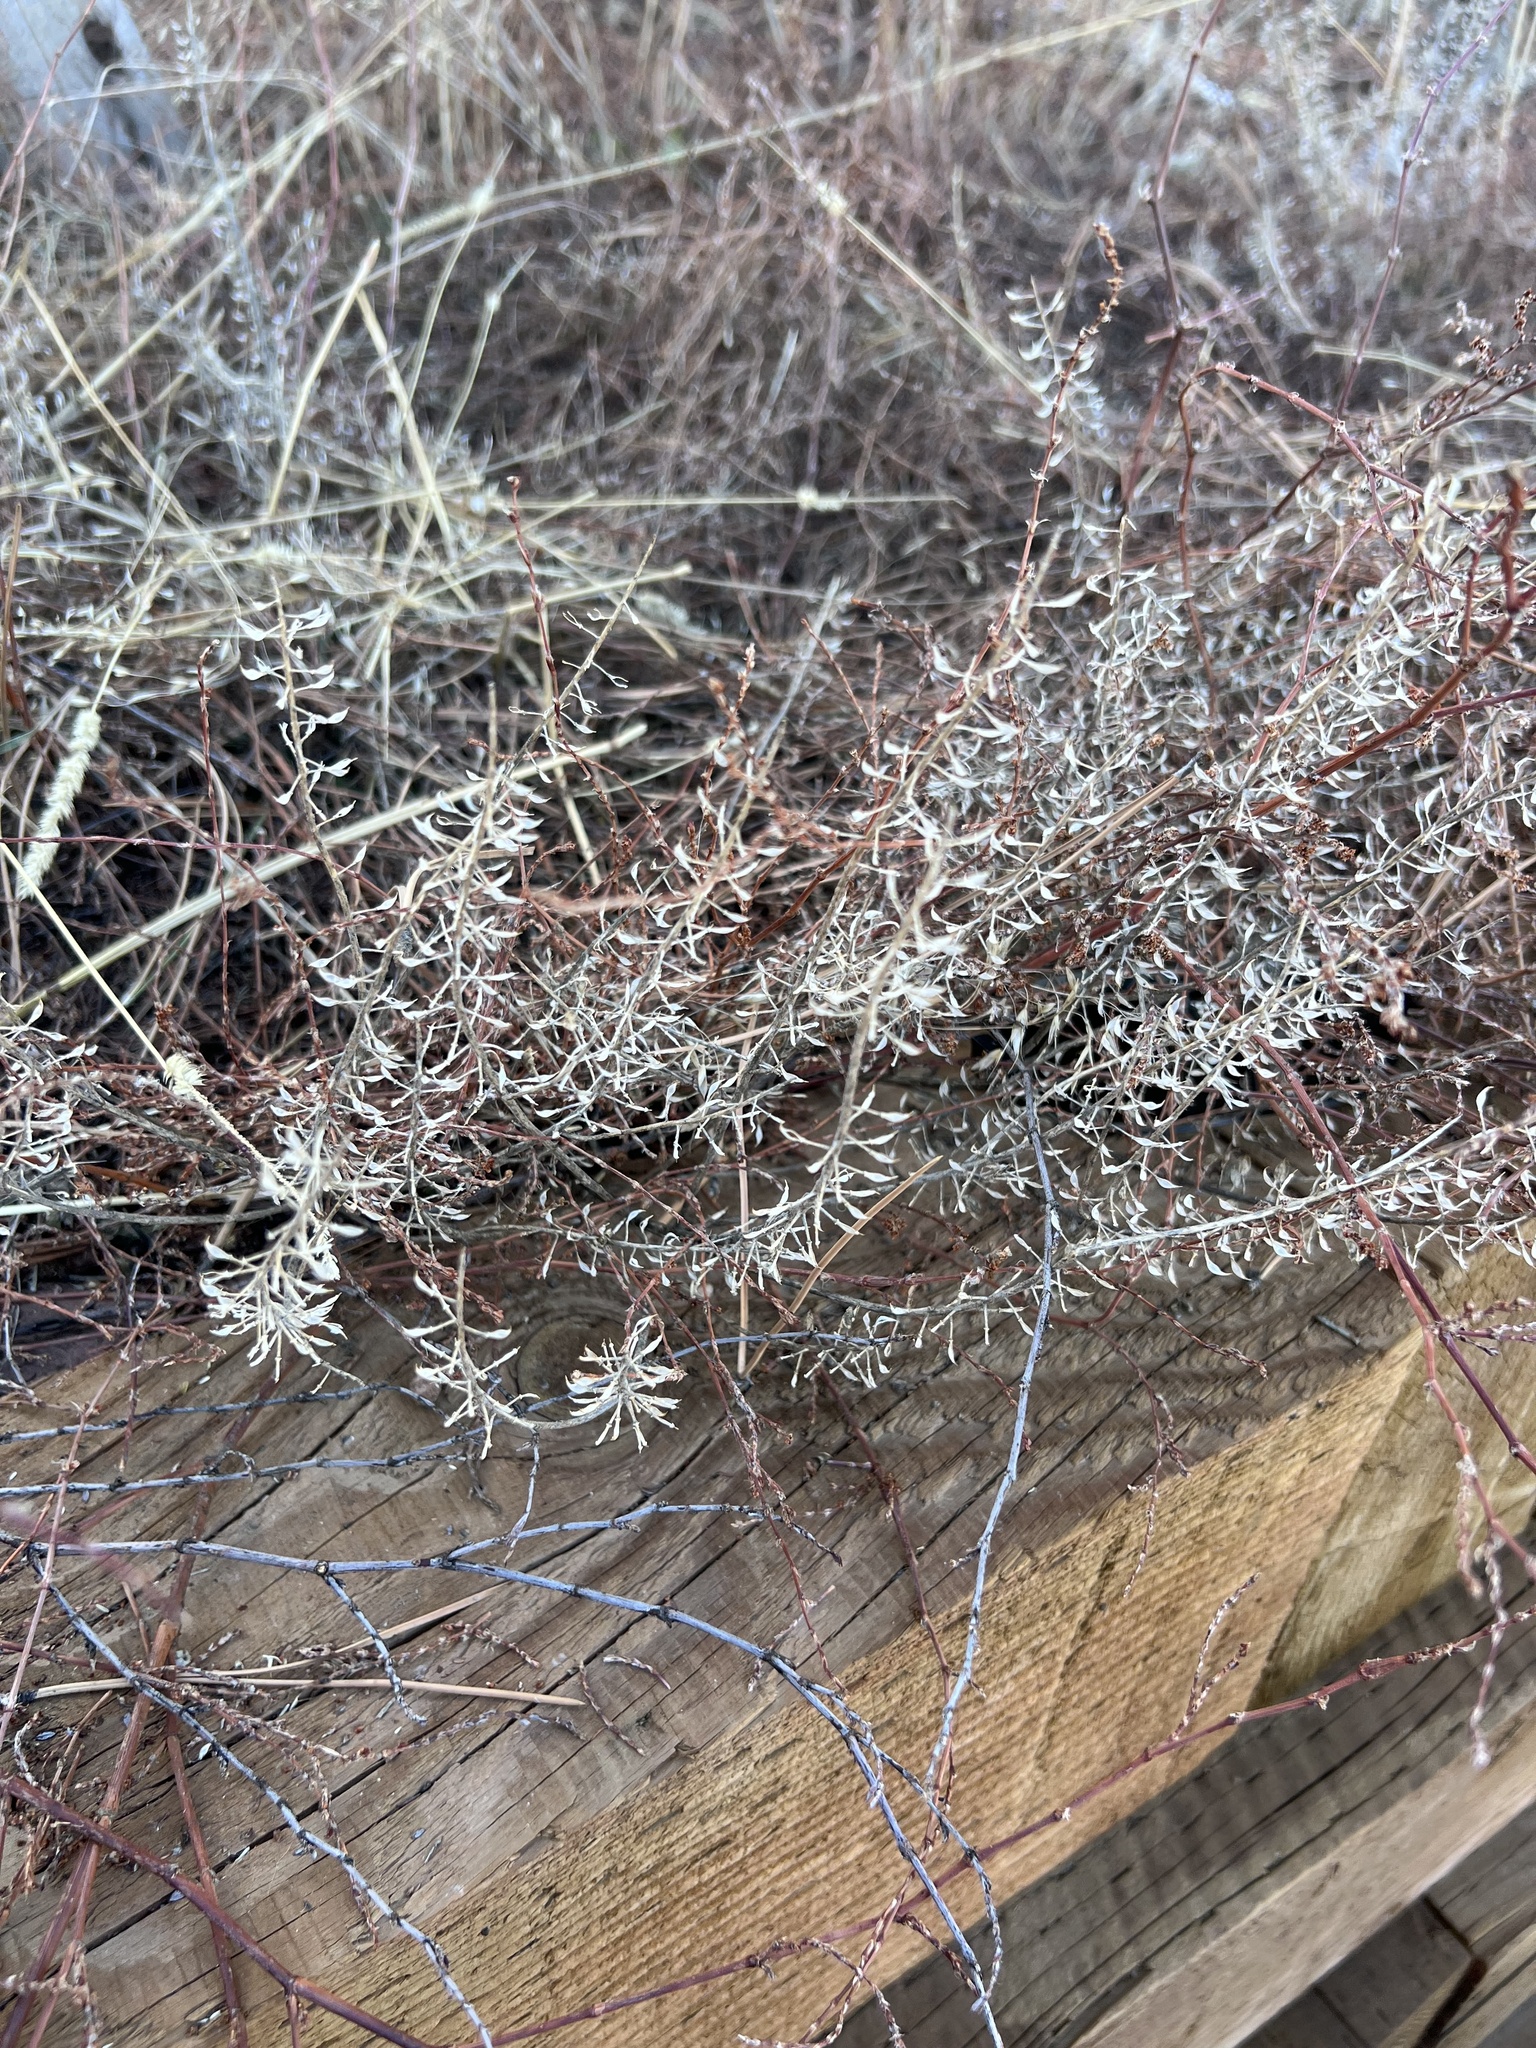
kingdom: Plantae
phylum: Tracheophyta
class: Magnoliopsida
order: Brassicales
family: Brassicaceae
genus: Lepidium
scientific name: Lepidium campestre
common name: Field pepperwort
